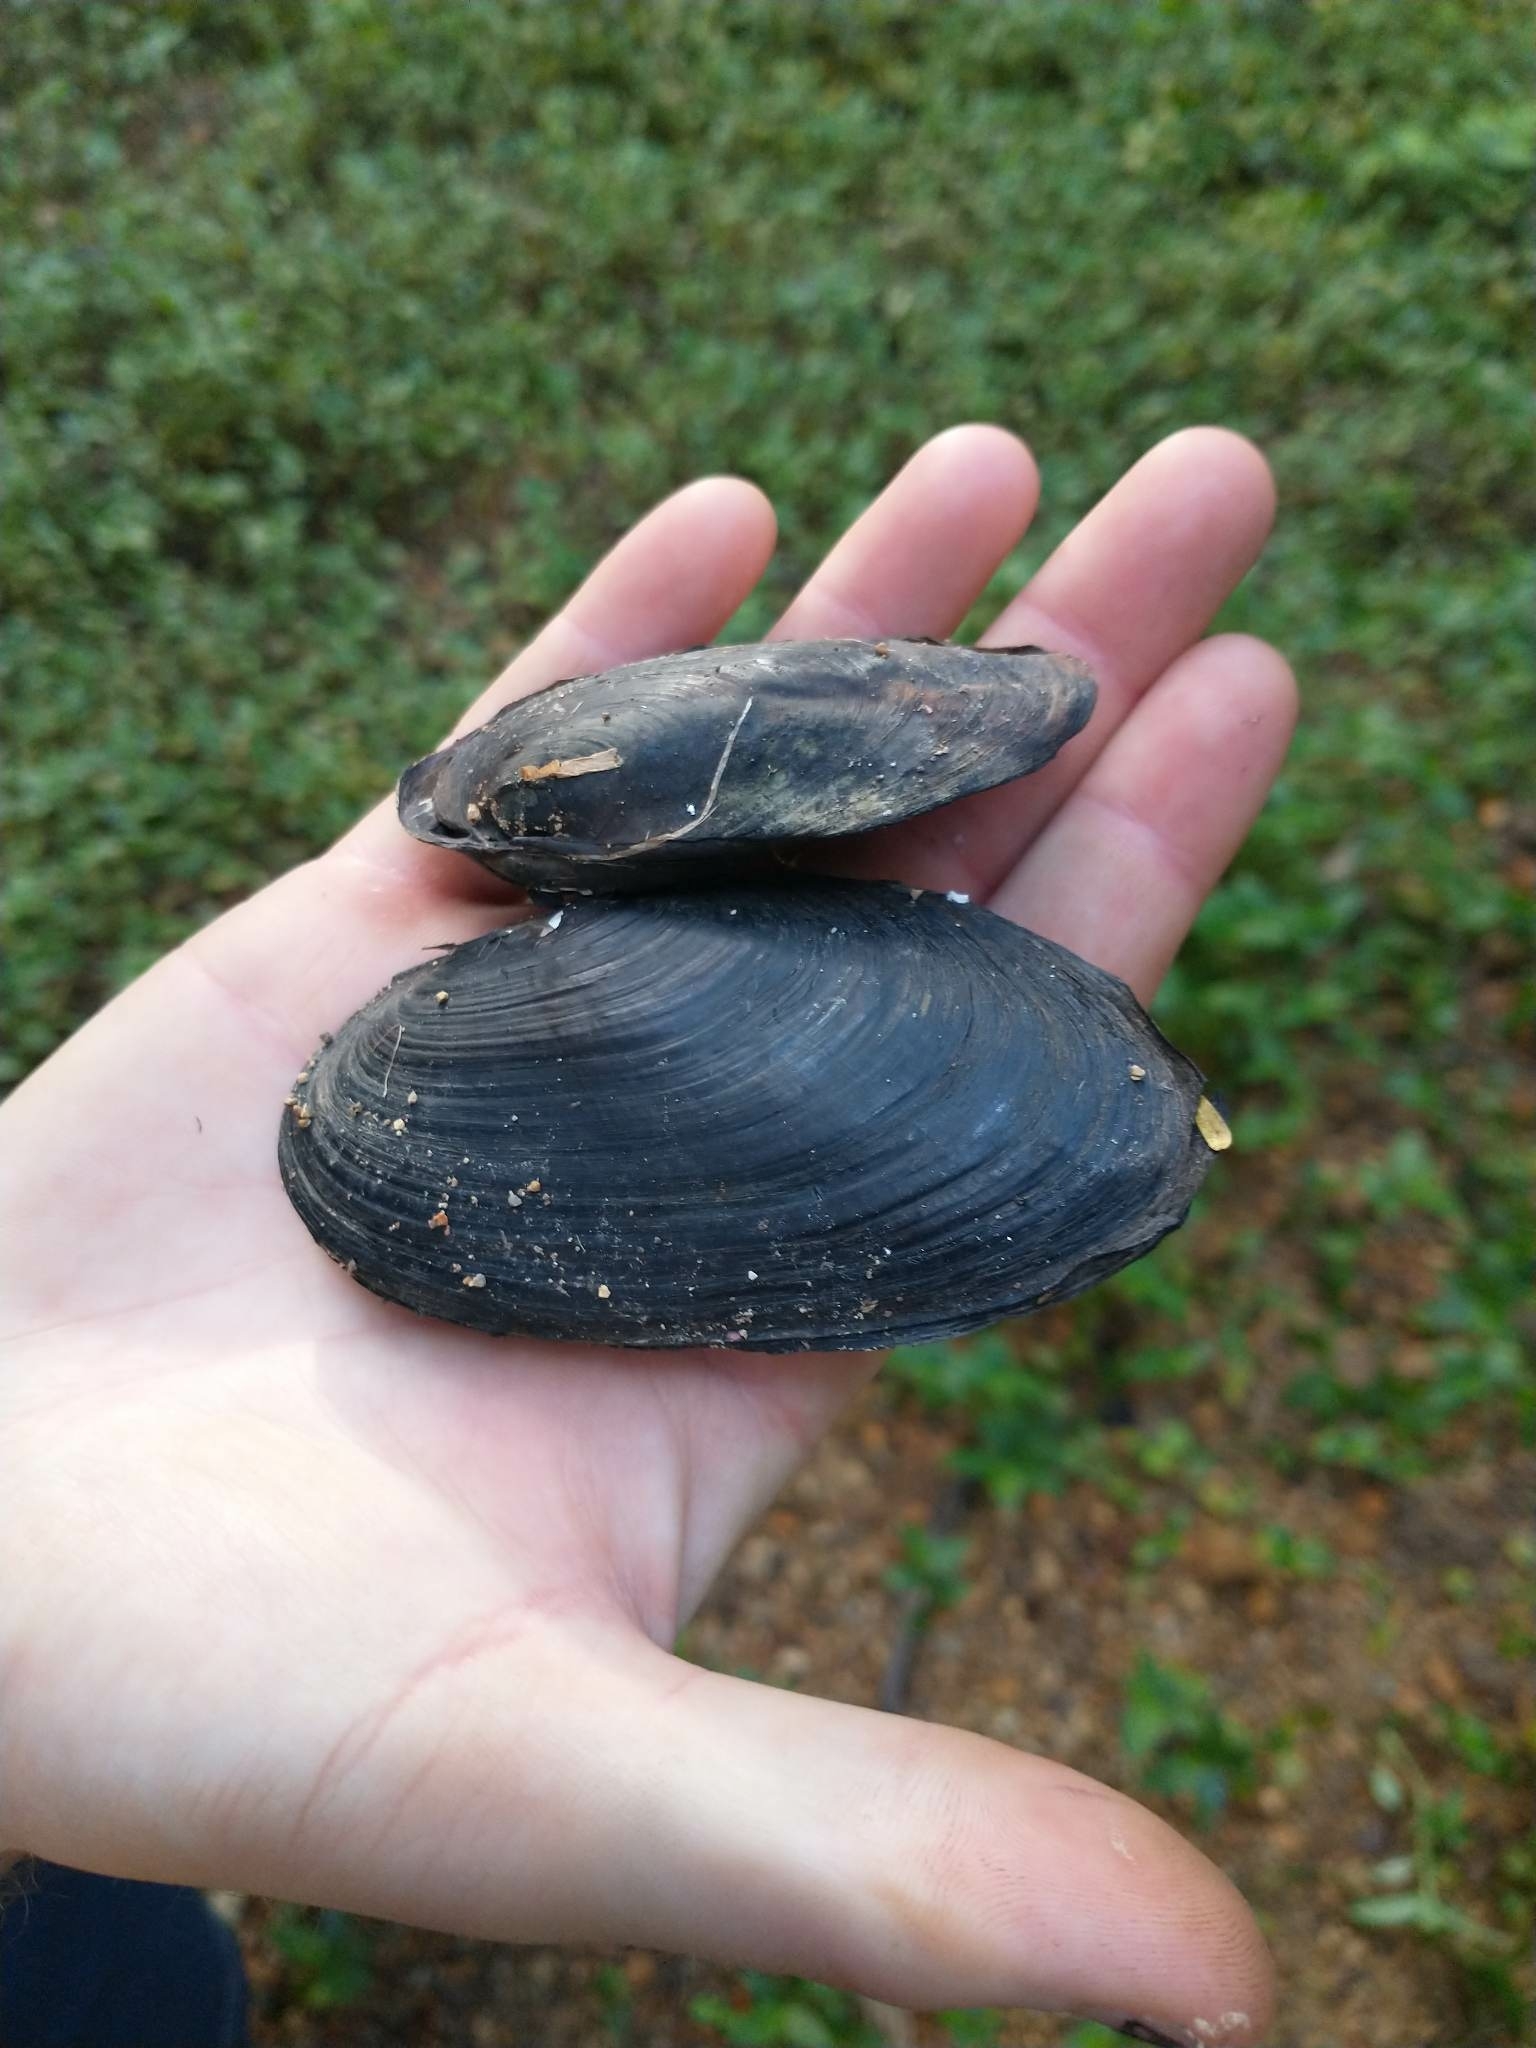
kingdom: Animalia
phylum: Mollusca
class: Bivalvia
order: Unionida
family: Hyriidae
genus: Echyridella
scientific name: Echyridella menziesii
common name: New zealand freshwater mussel
